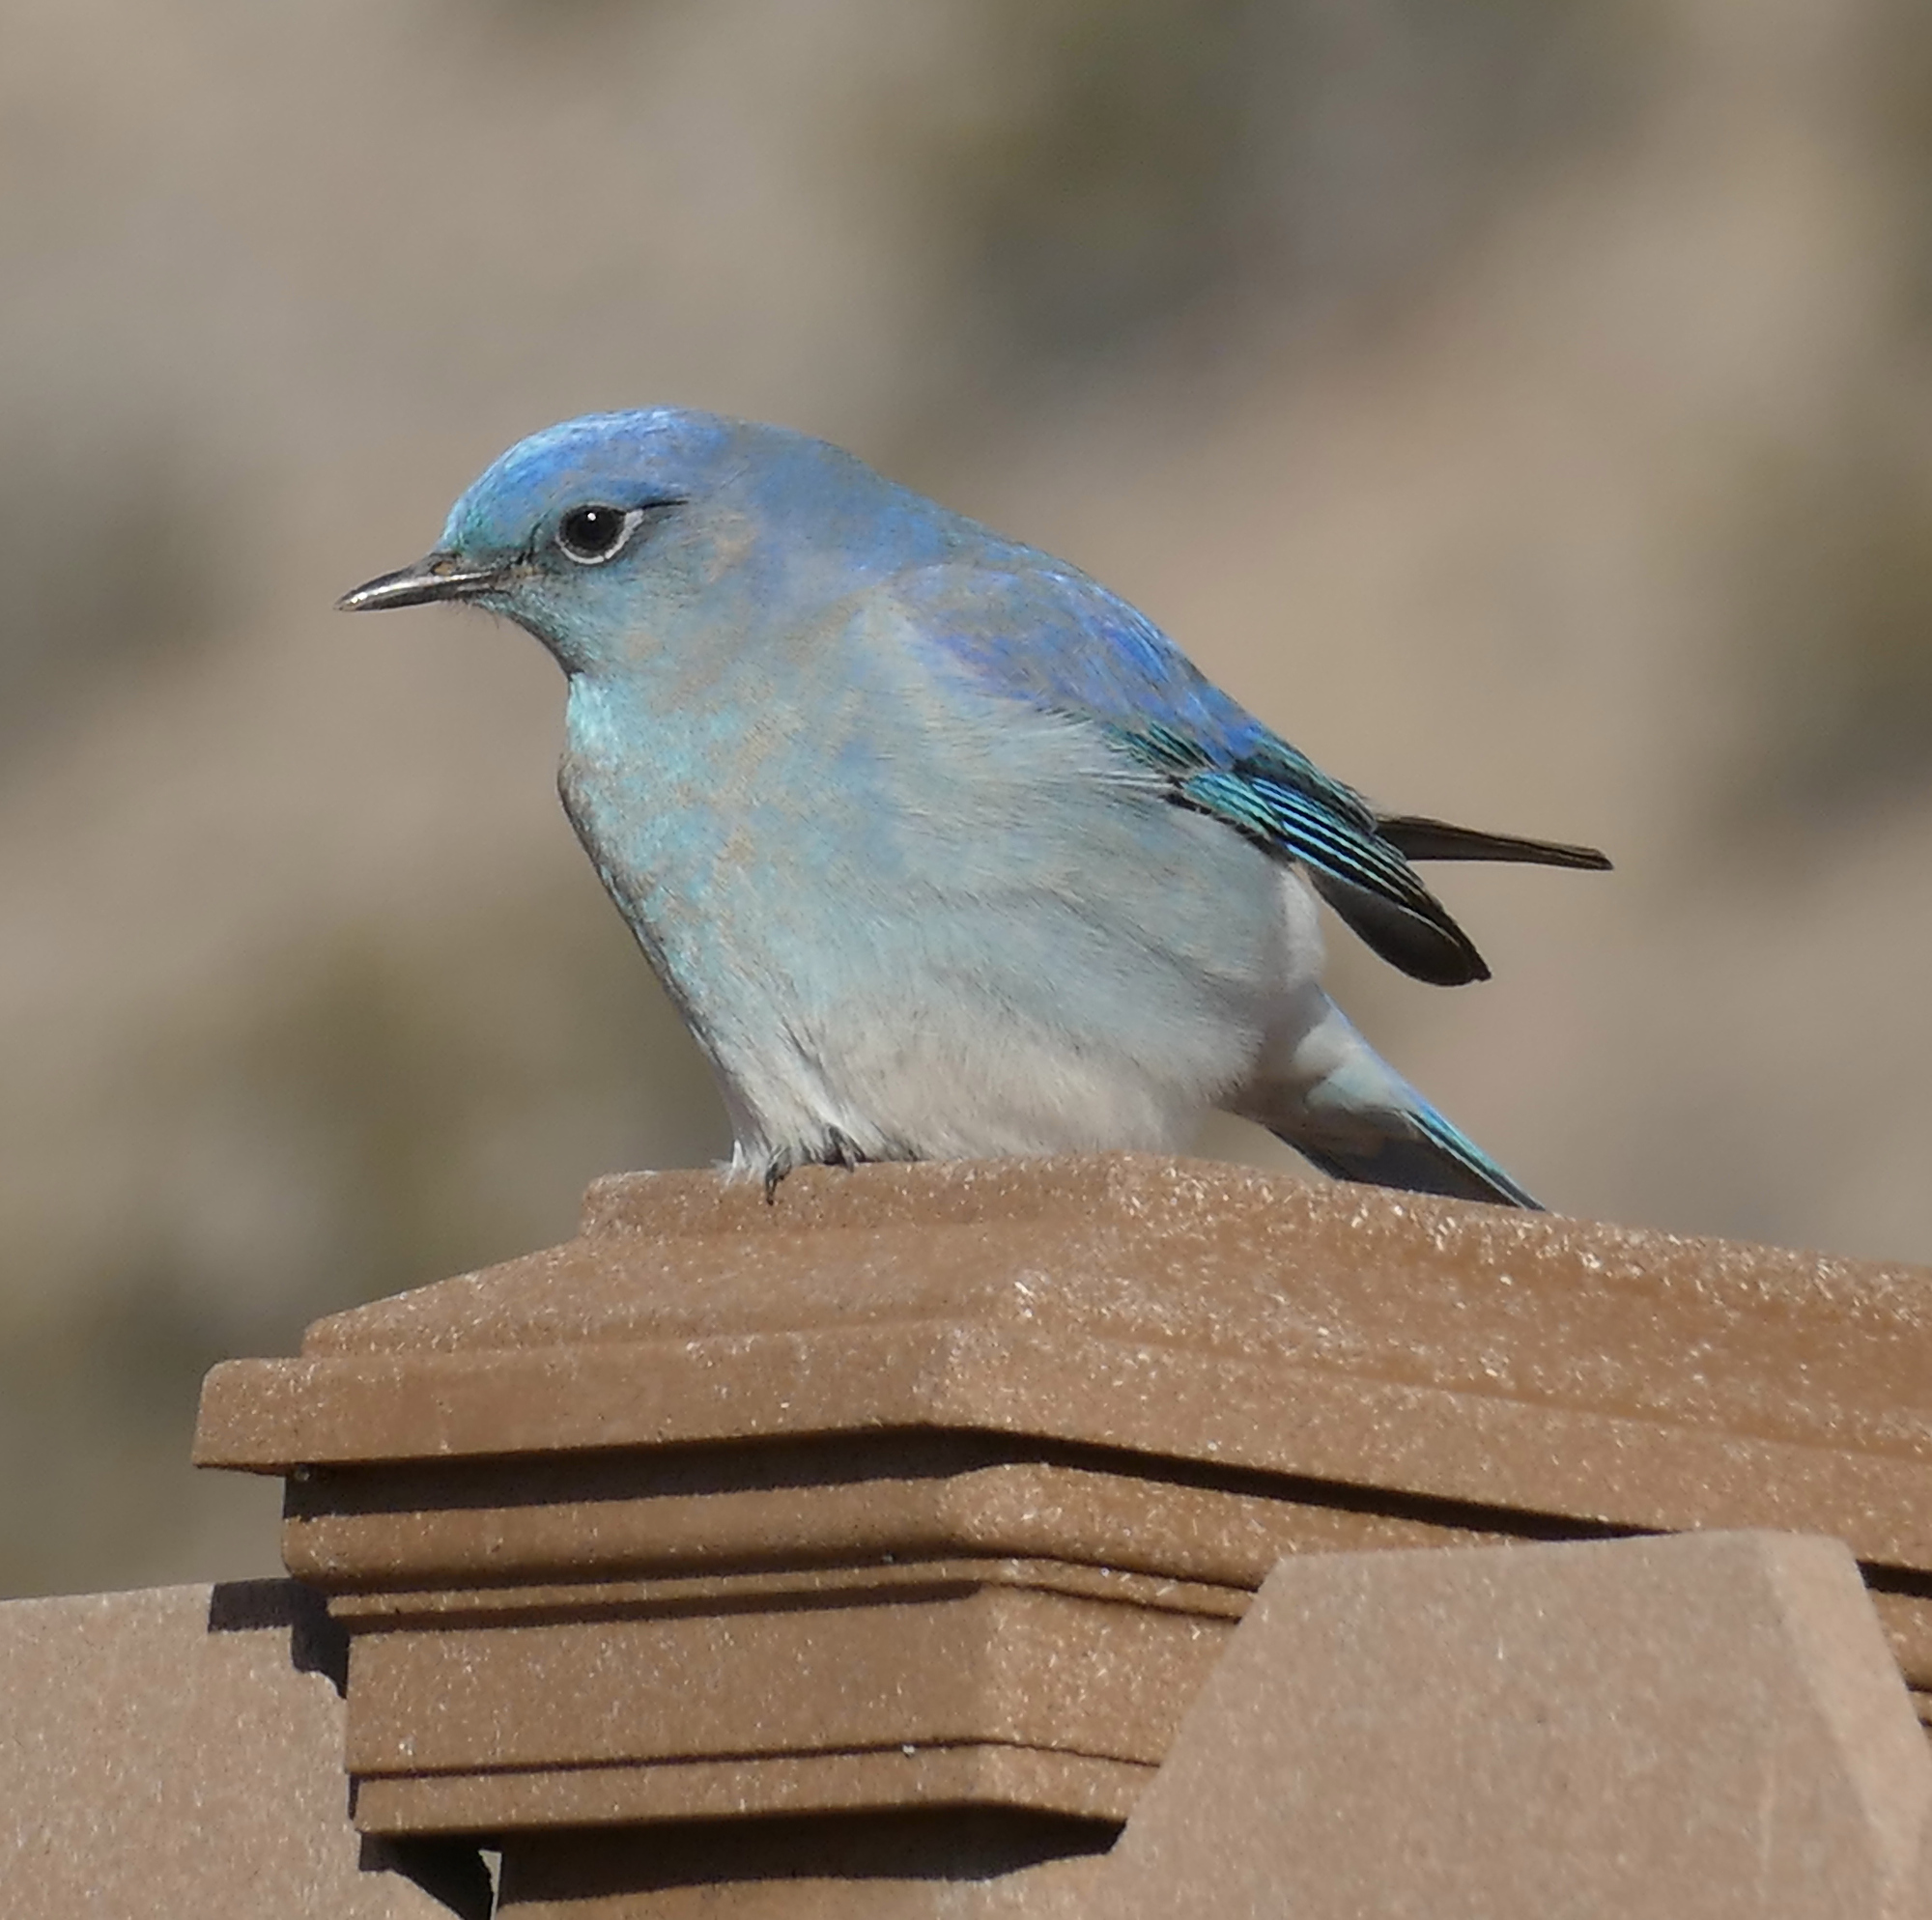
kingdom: Animalia
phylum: Chordata
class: Aves
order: Passeriformes
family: Turdidae
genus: Sialia
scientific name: Sialia currucoides
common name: Mountain bluebird
